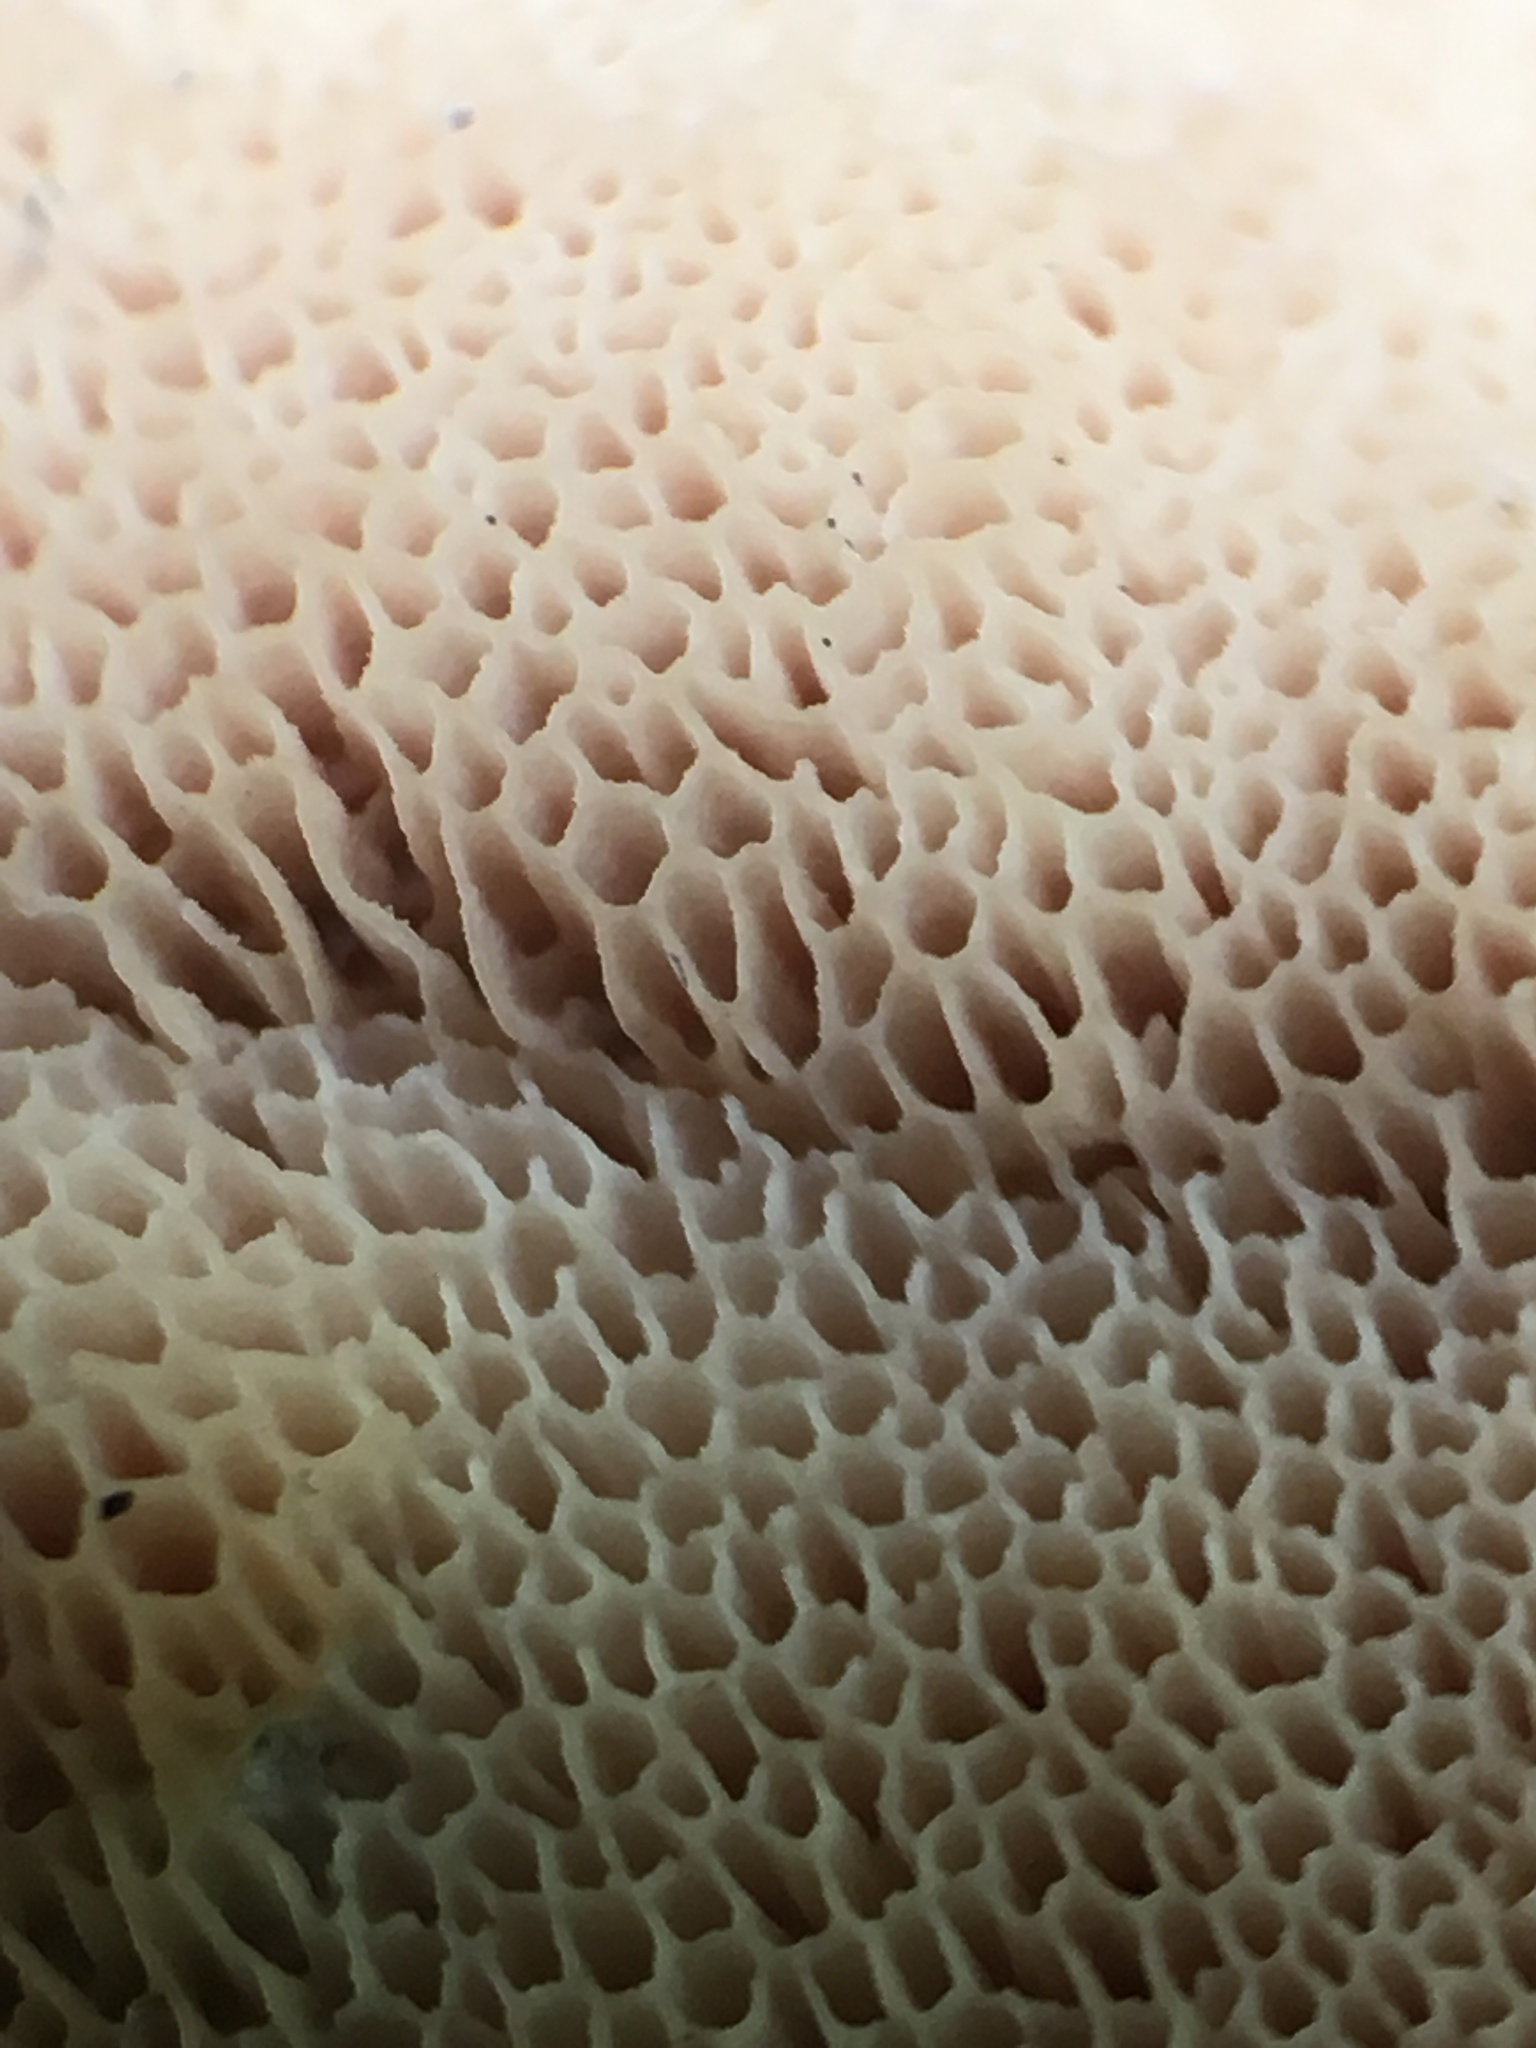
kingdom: Fungi
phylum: Basidiomycota
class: Agaricomycetes
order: Polyporales
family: Irpicaceae
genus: Ceriporia
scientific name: Ceriporia occidentalis
